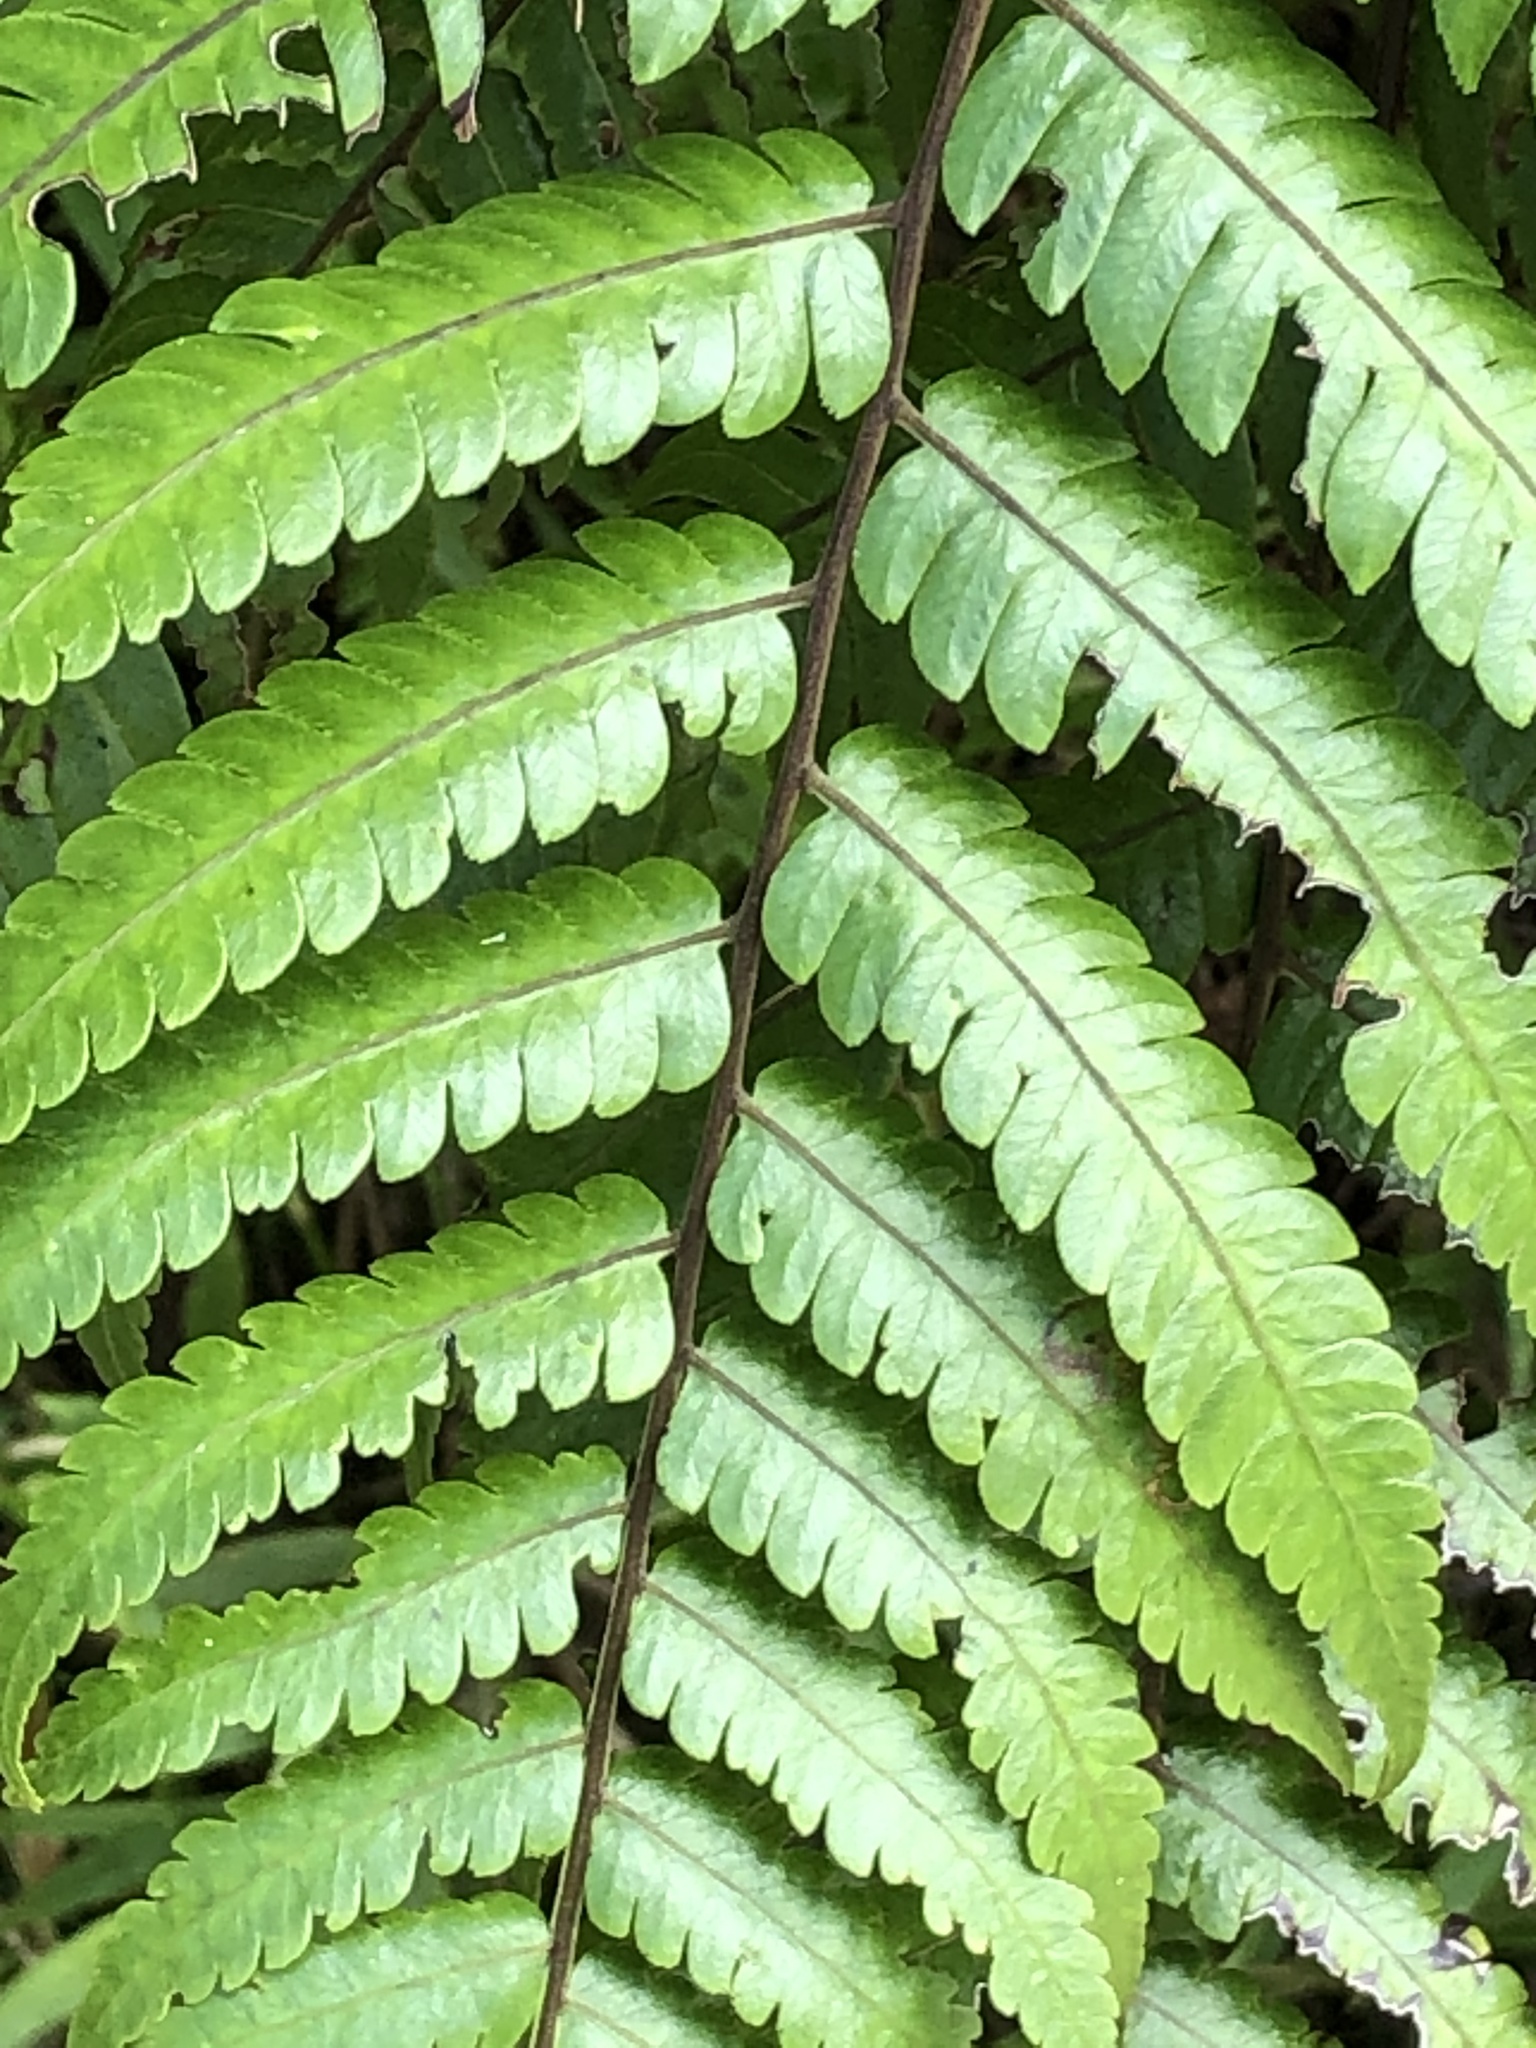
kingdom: Plantae
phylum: Tracheophyta
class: Polypodiopsida
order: Cyatheales
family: Cyatheaceae
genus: Cyathea
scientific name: Cyathea borinquena
